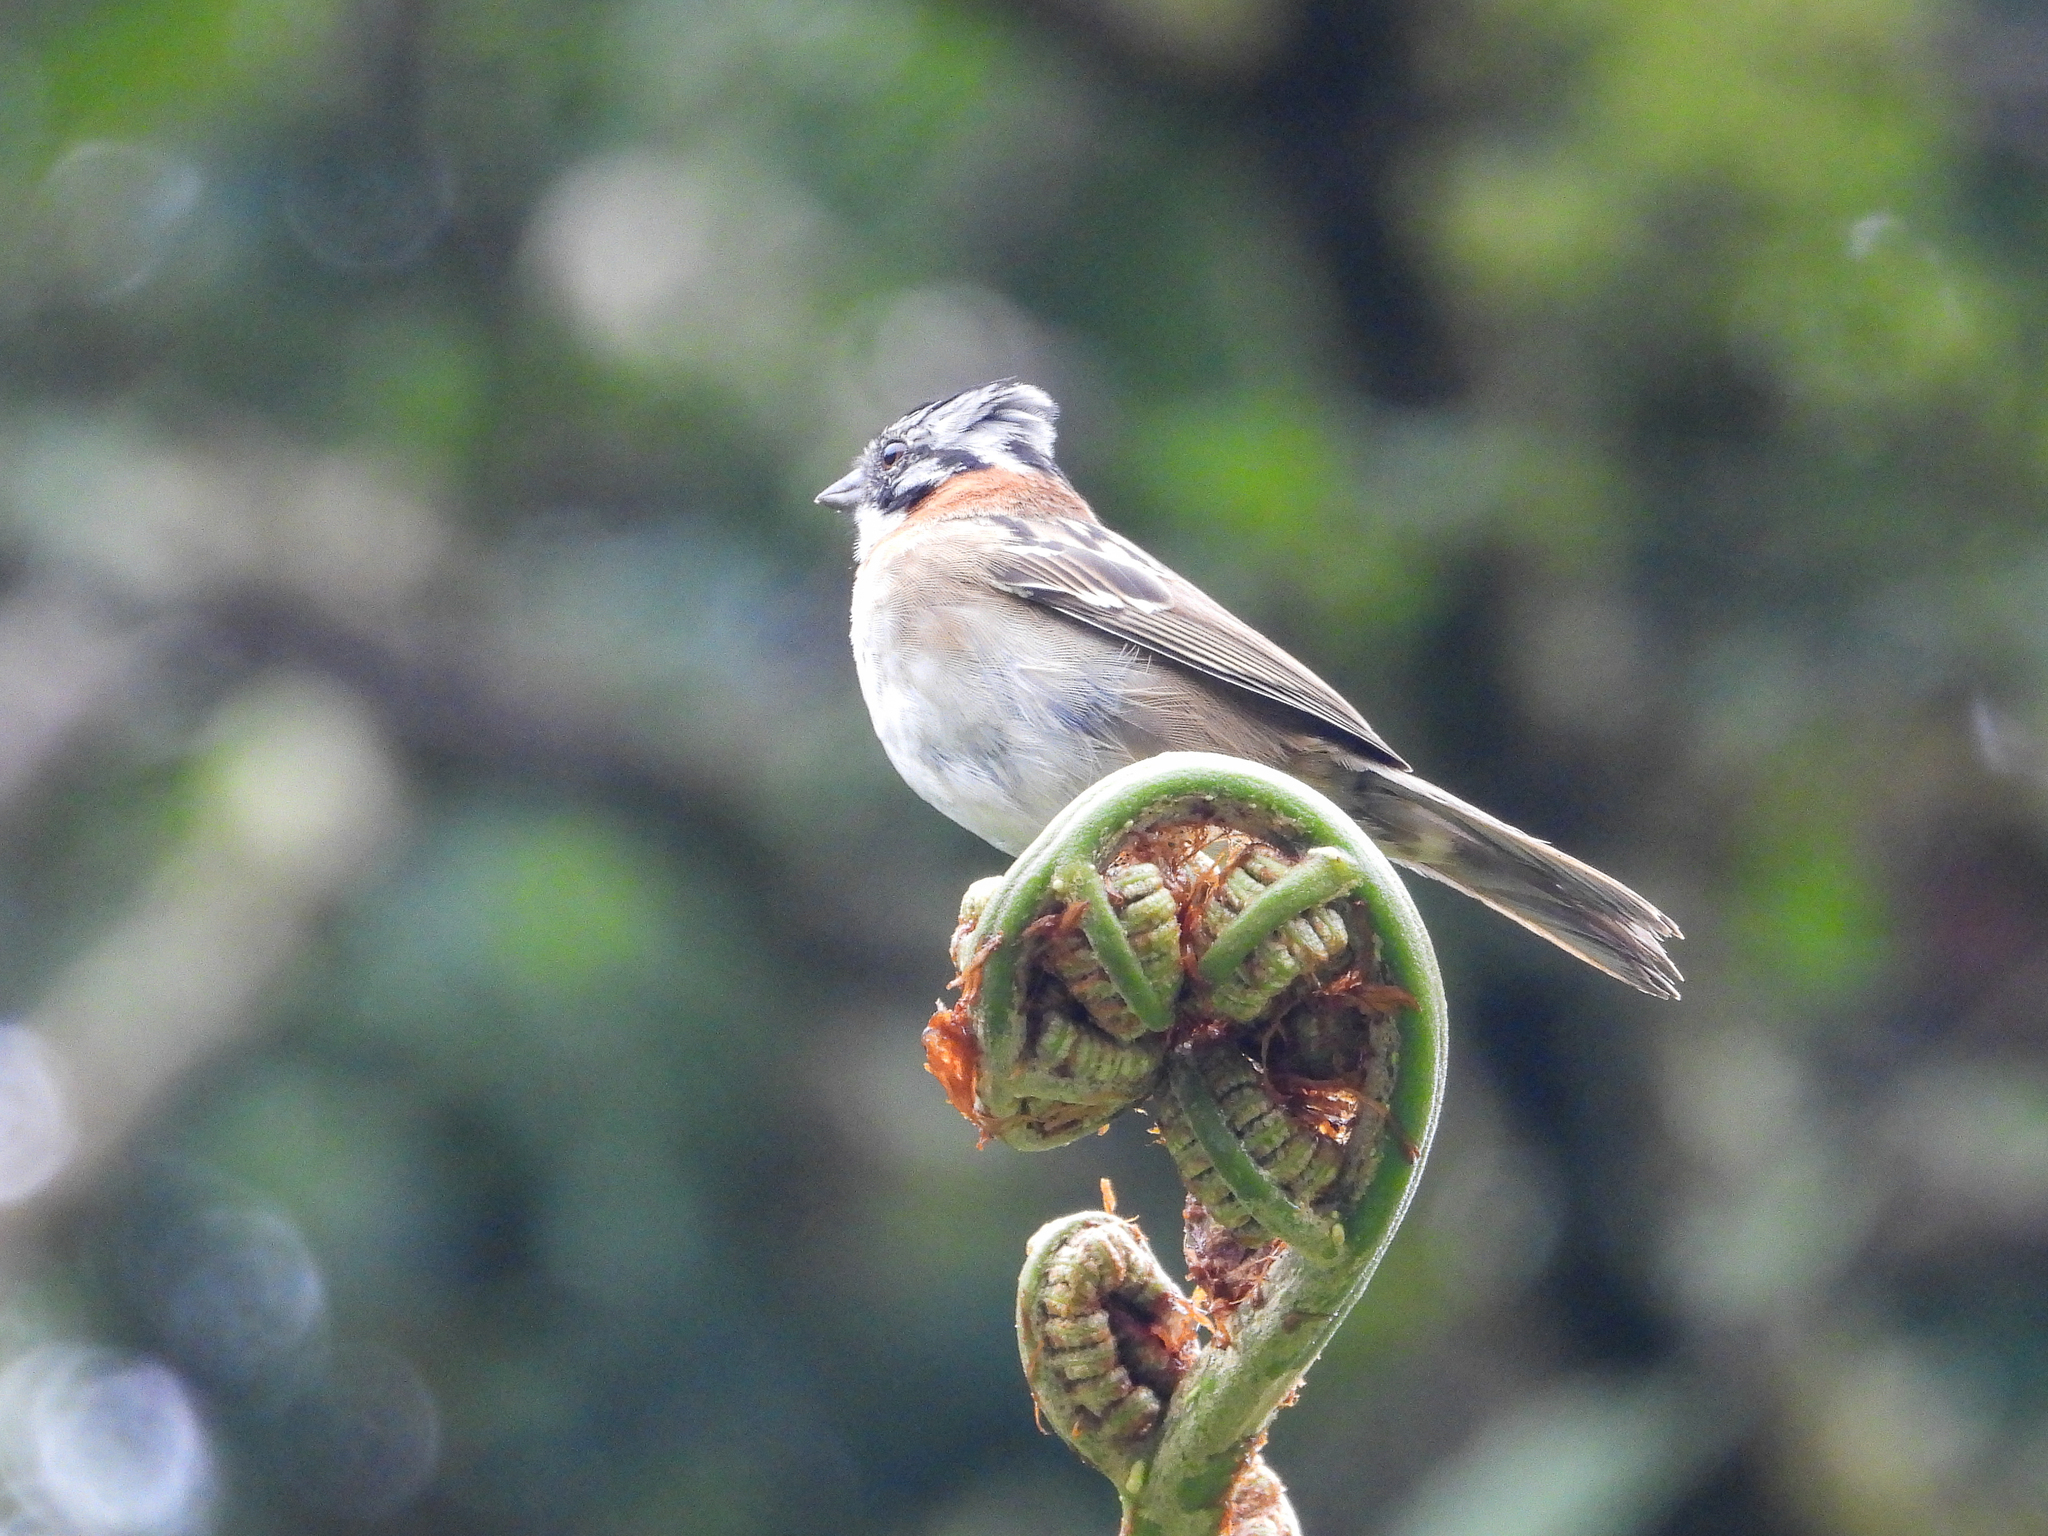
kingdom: Animalia
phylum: Chordata
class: Aves
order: Passeriformes
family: Passerellidae
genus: Zonotrichia
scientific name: Zonotrichia capensis
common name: Rufous-collared sparrow
